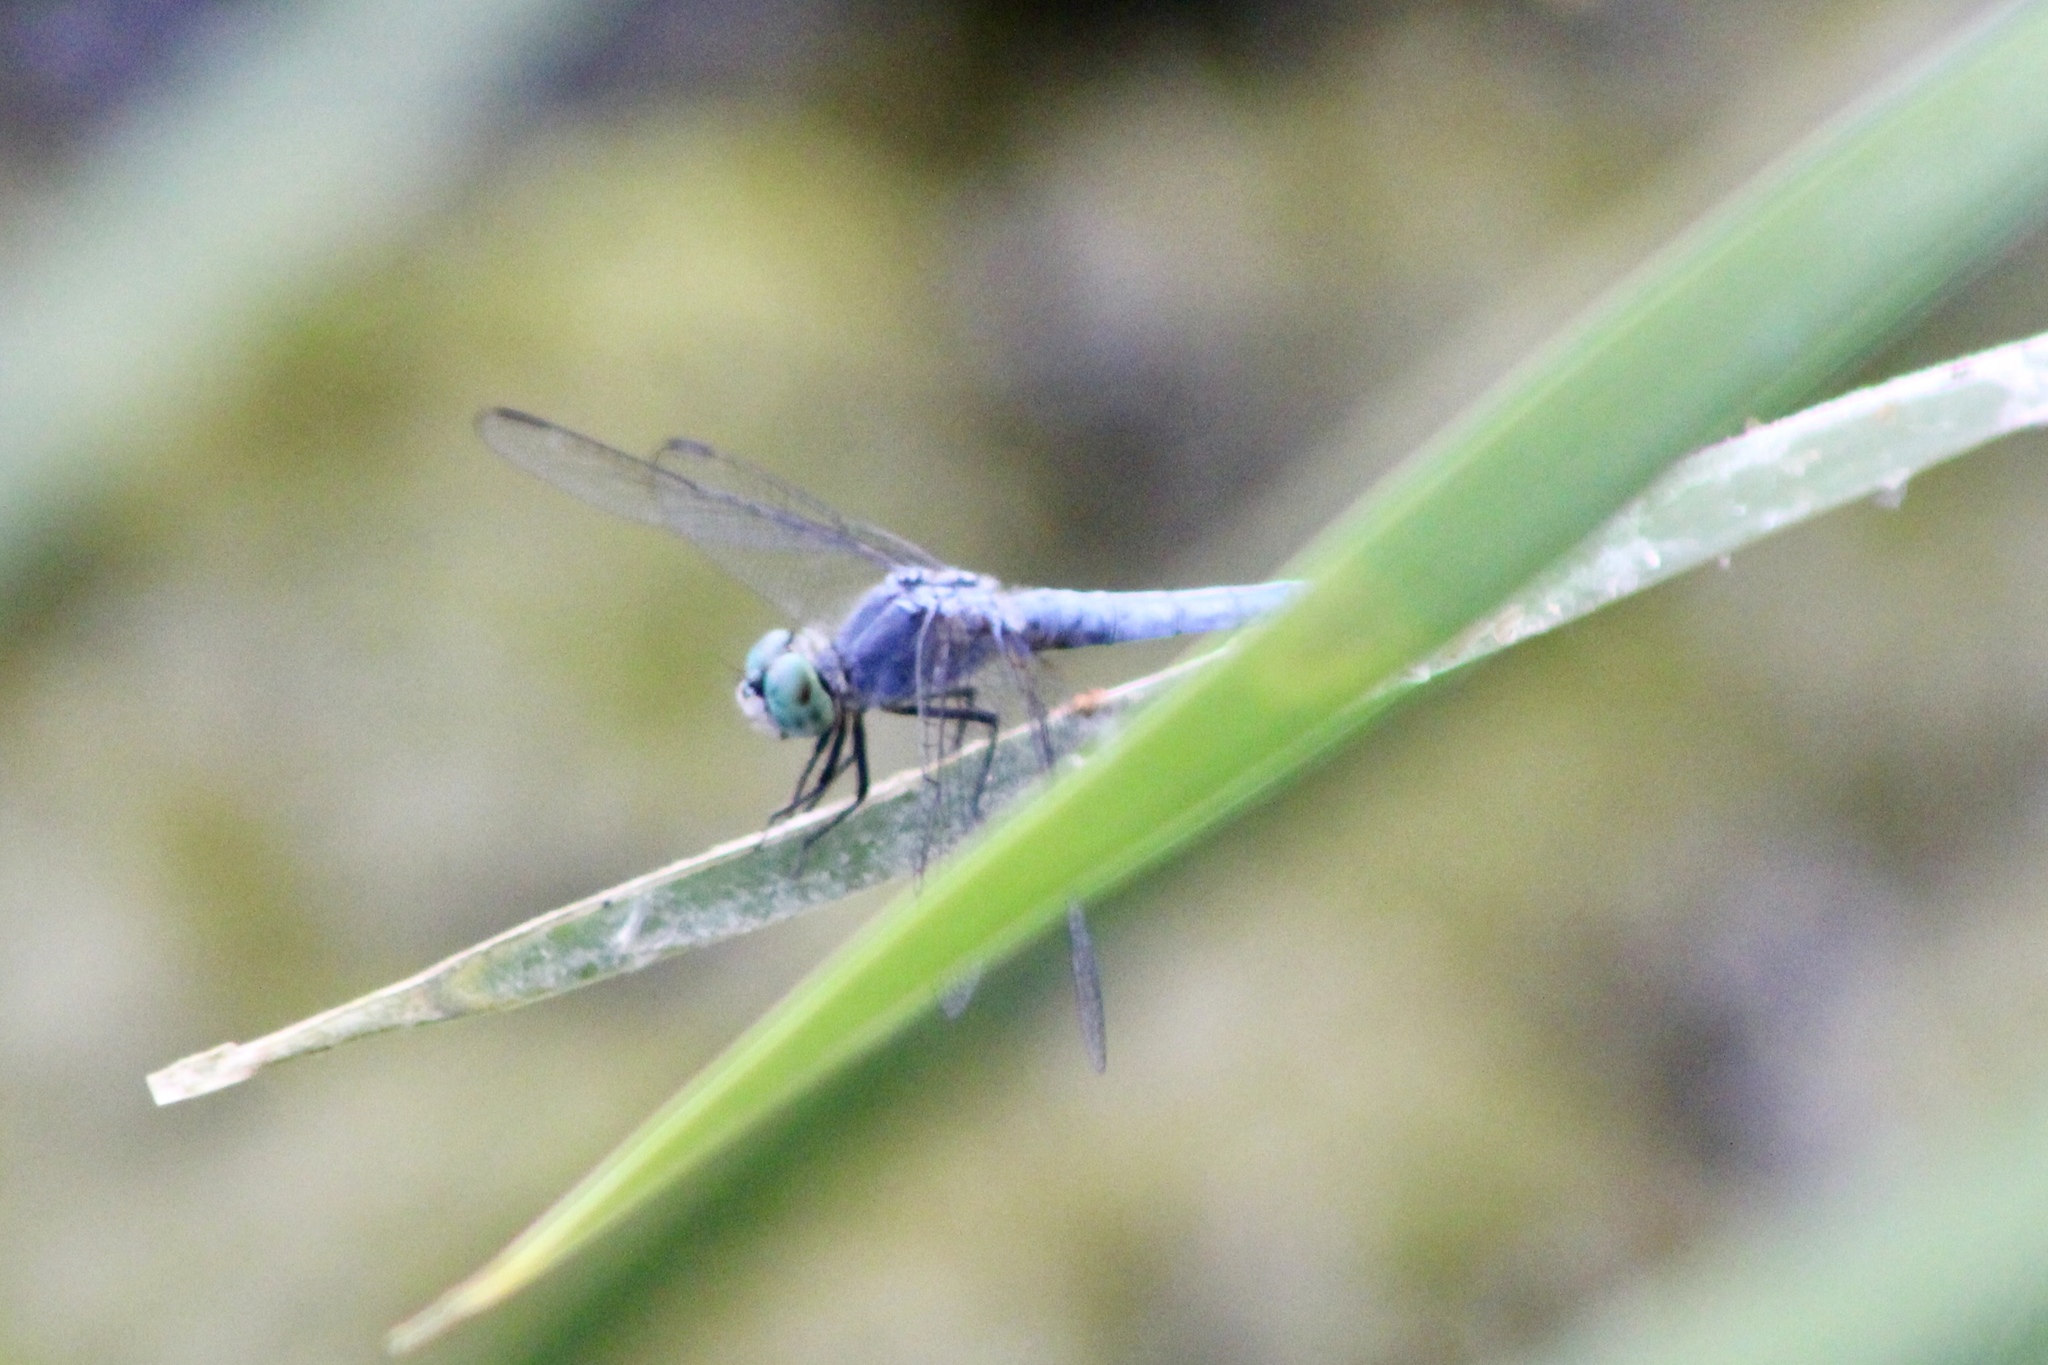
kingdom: Animalia
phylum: Arthropoda
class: Insecta
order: Odonata
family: Libellulidae
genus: Pachydiplax
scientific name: Pachydiplax longipennis
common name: Blue dasher
